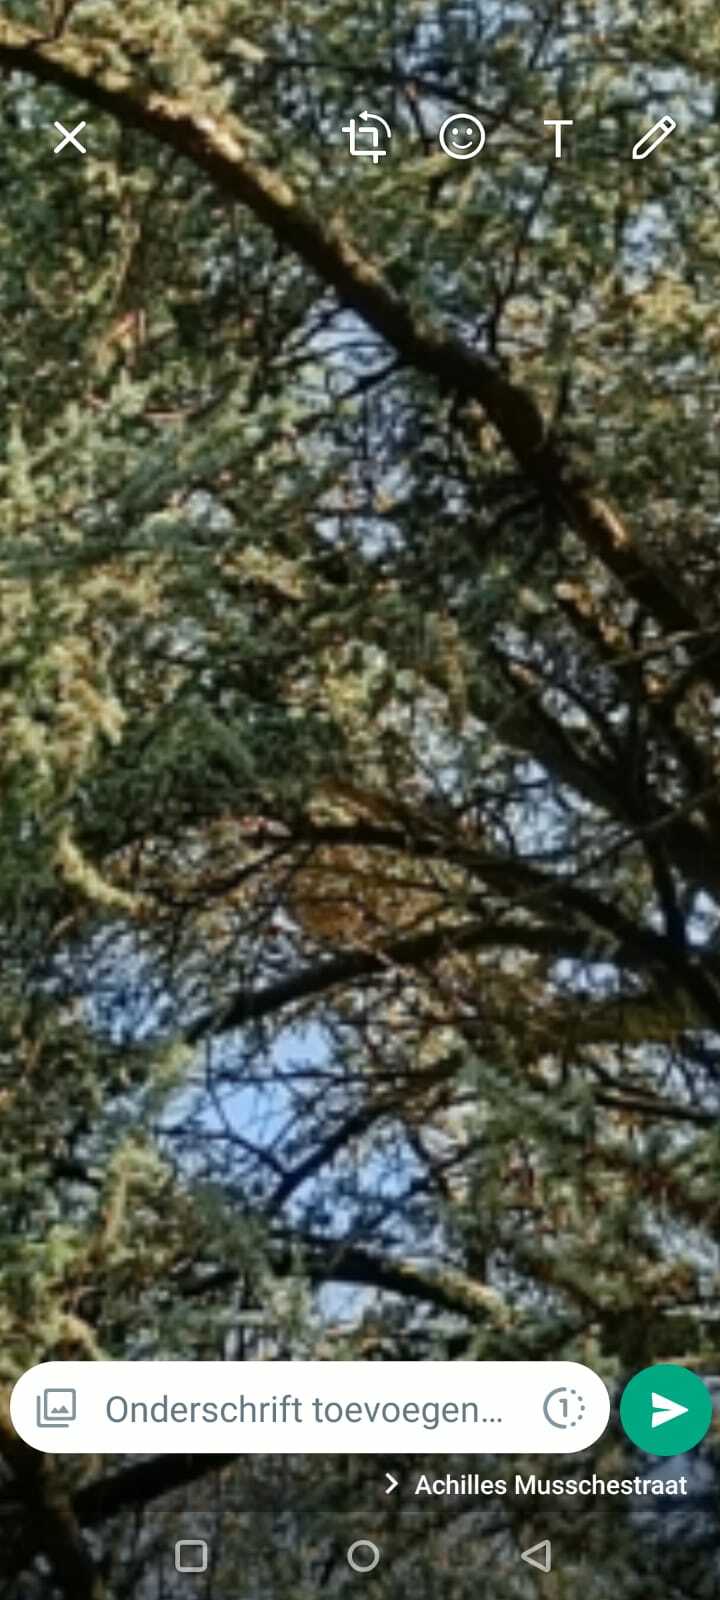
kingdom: Animalia
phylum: Arthropoda
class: Insecta
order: Hymenoptera
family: Vespidae
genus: Vespa
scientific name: Vespa velutina
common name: Asian hornet
